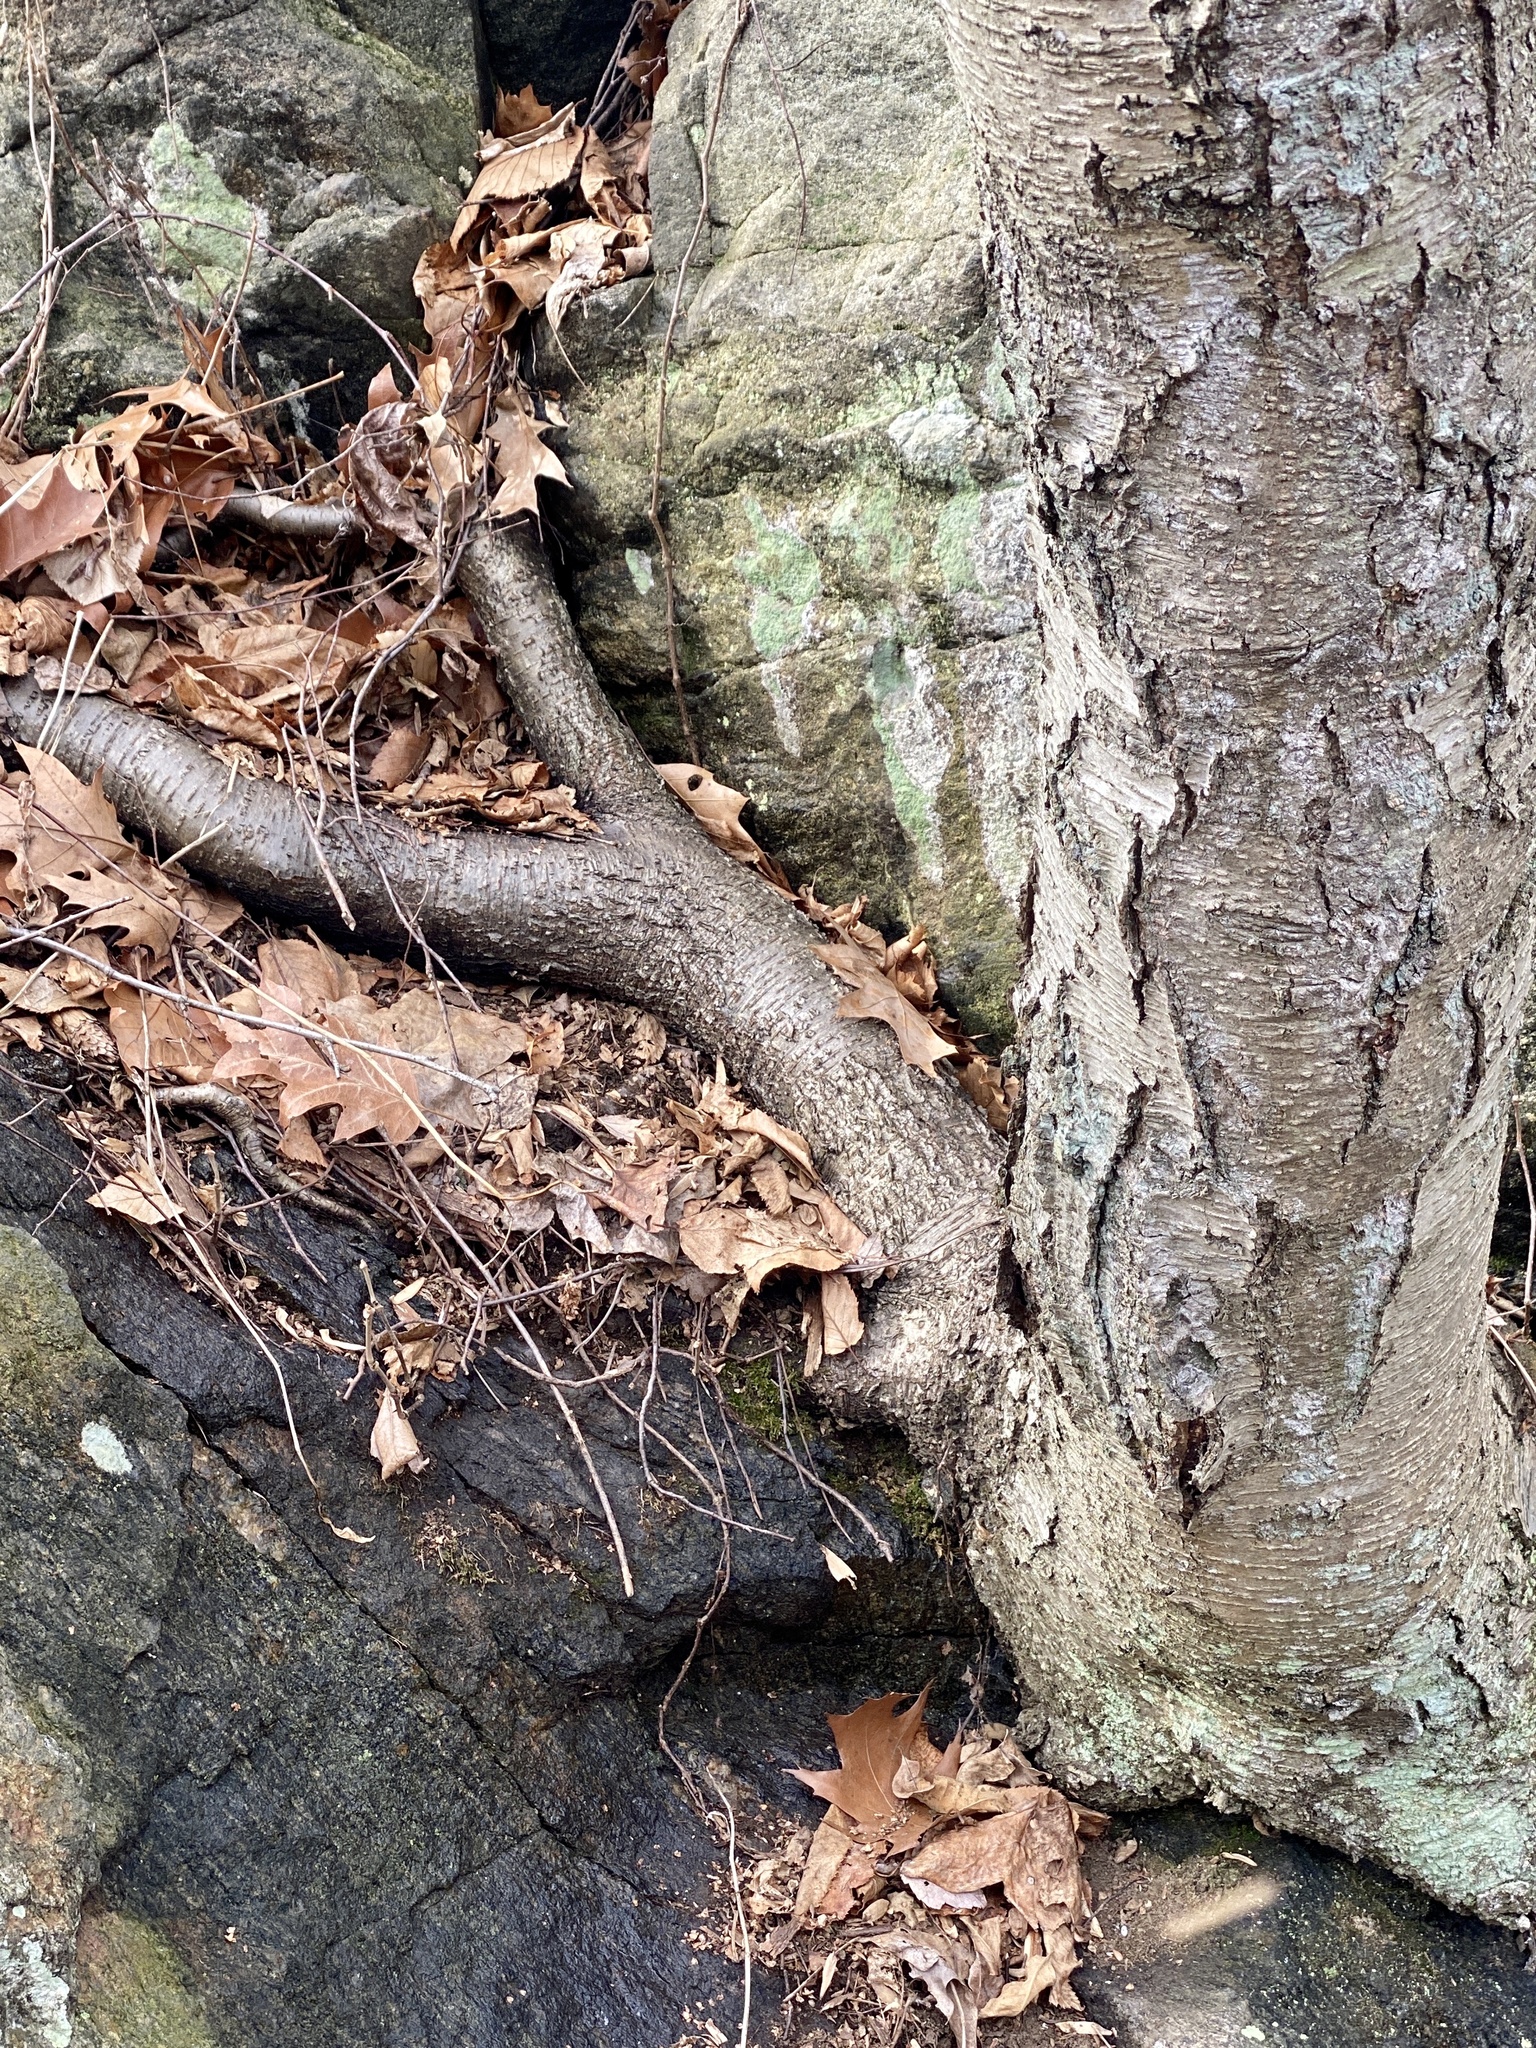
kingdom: Plantae
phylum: Tracheophyta
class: Magnoliopsida
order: Fagales
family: Betulaceae
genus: Betula
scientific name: Betula lenta
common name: Black birch
